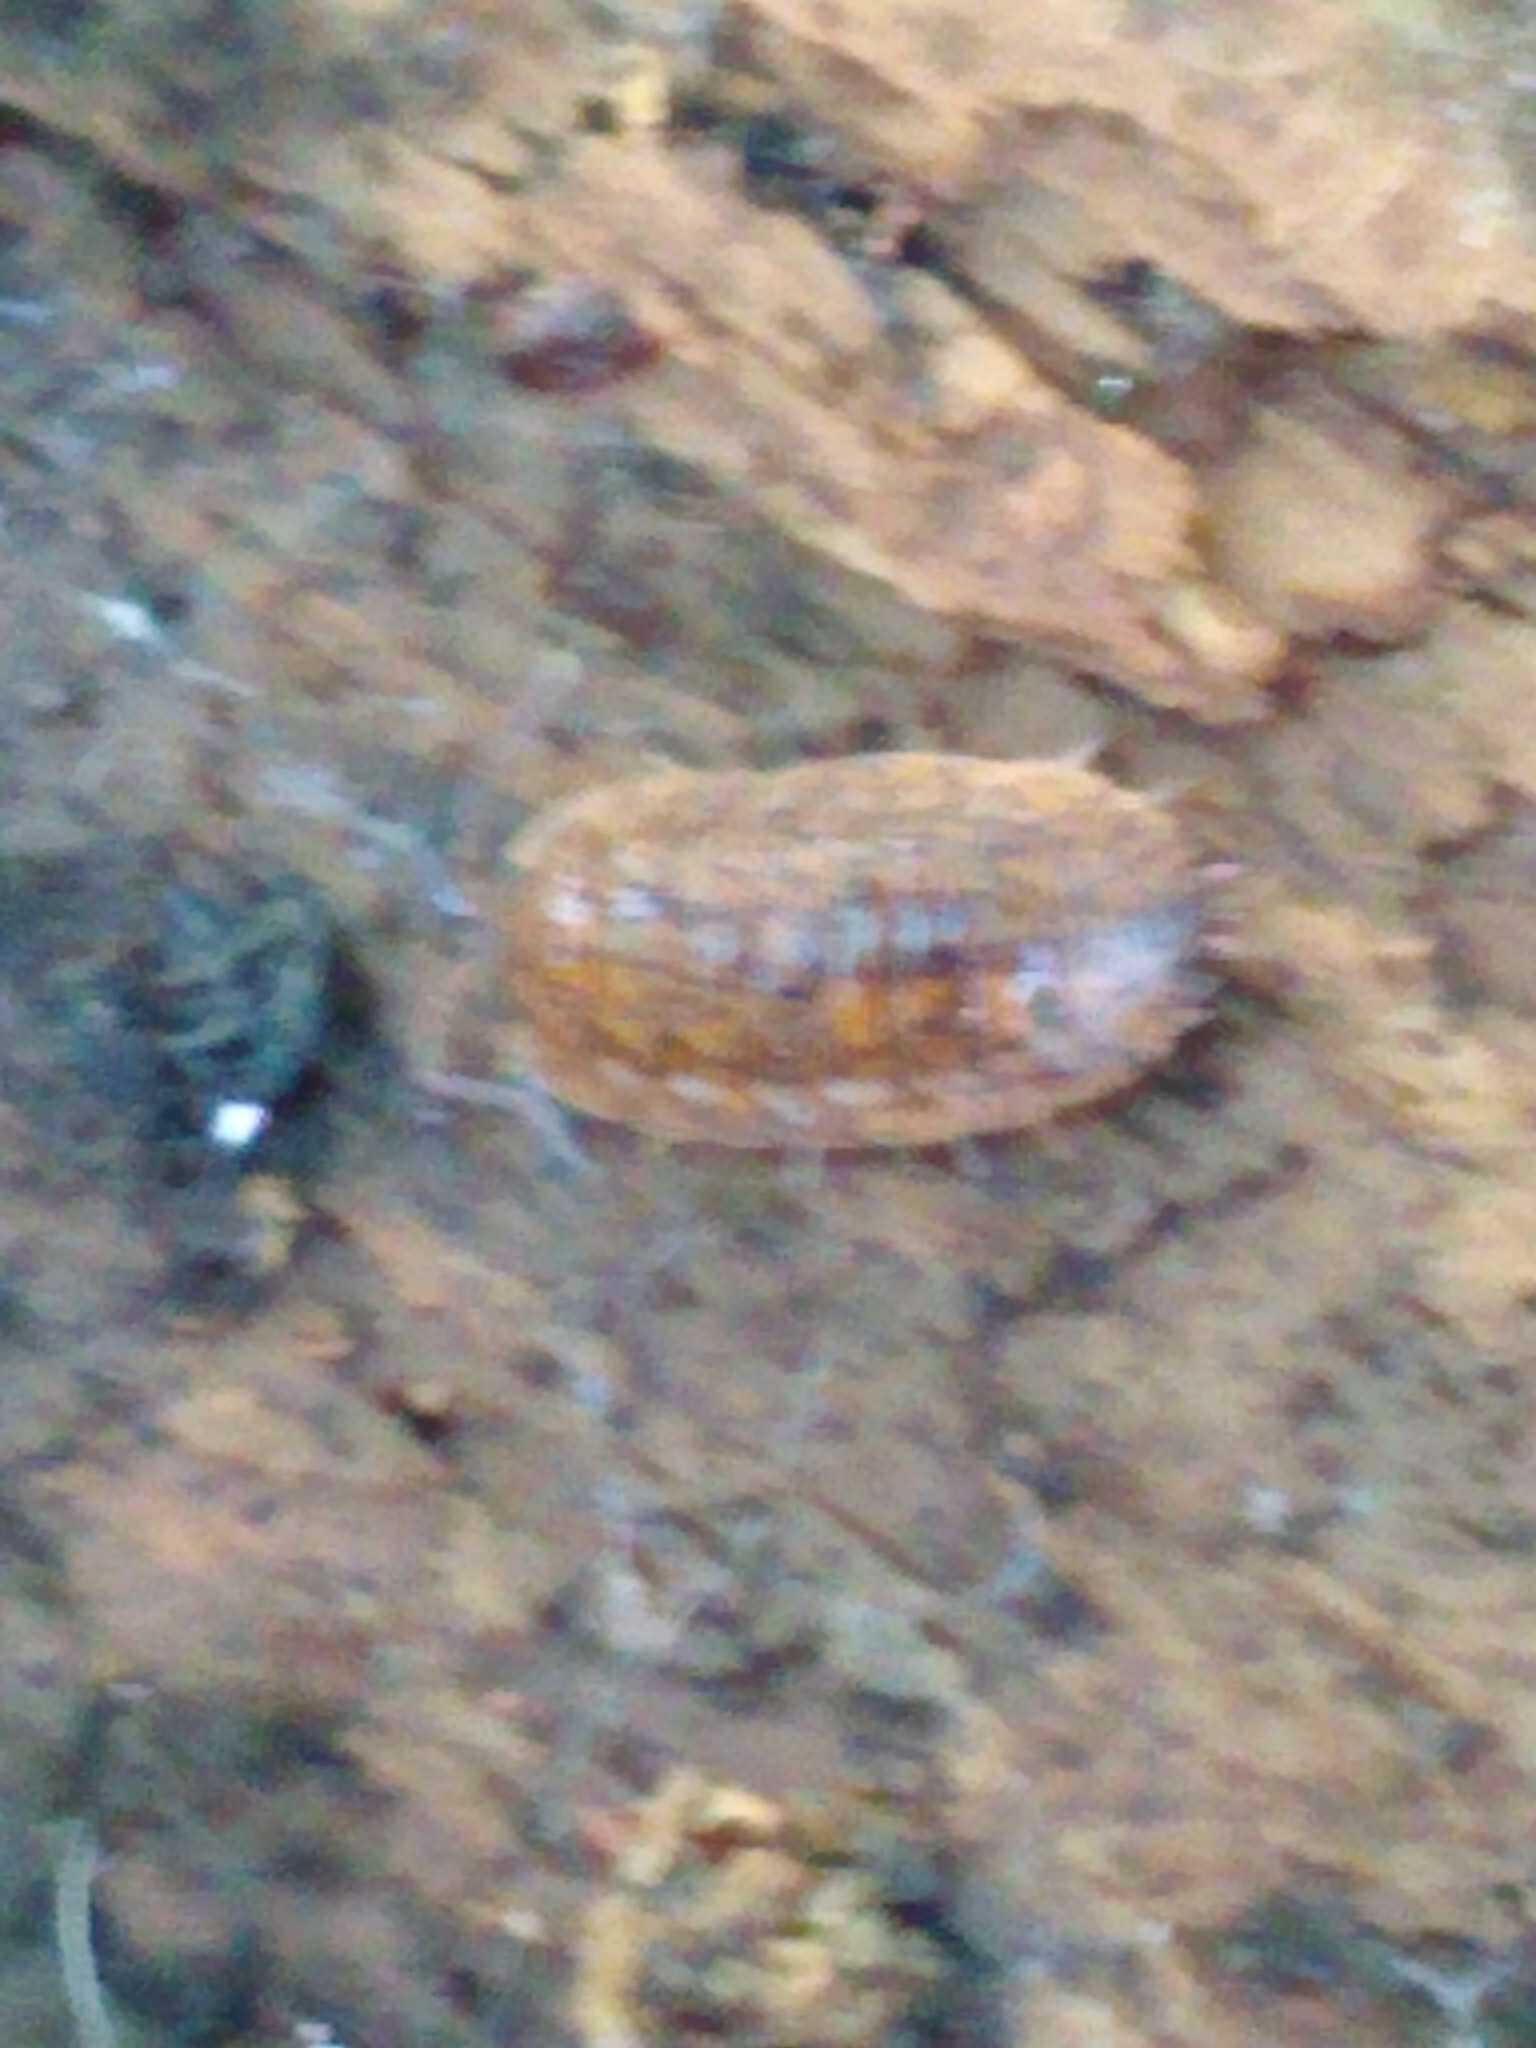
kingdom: Animalia
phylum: Arthropoda
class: Malacostraca
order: Isopoda
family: Trachelipodidae
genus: Trachelipus
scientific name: Trachelipus rathkii
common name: Isopod
